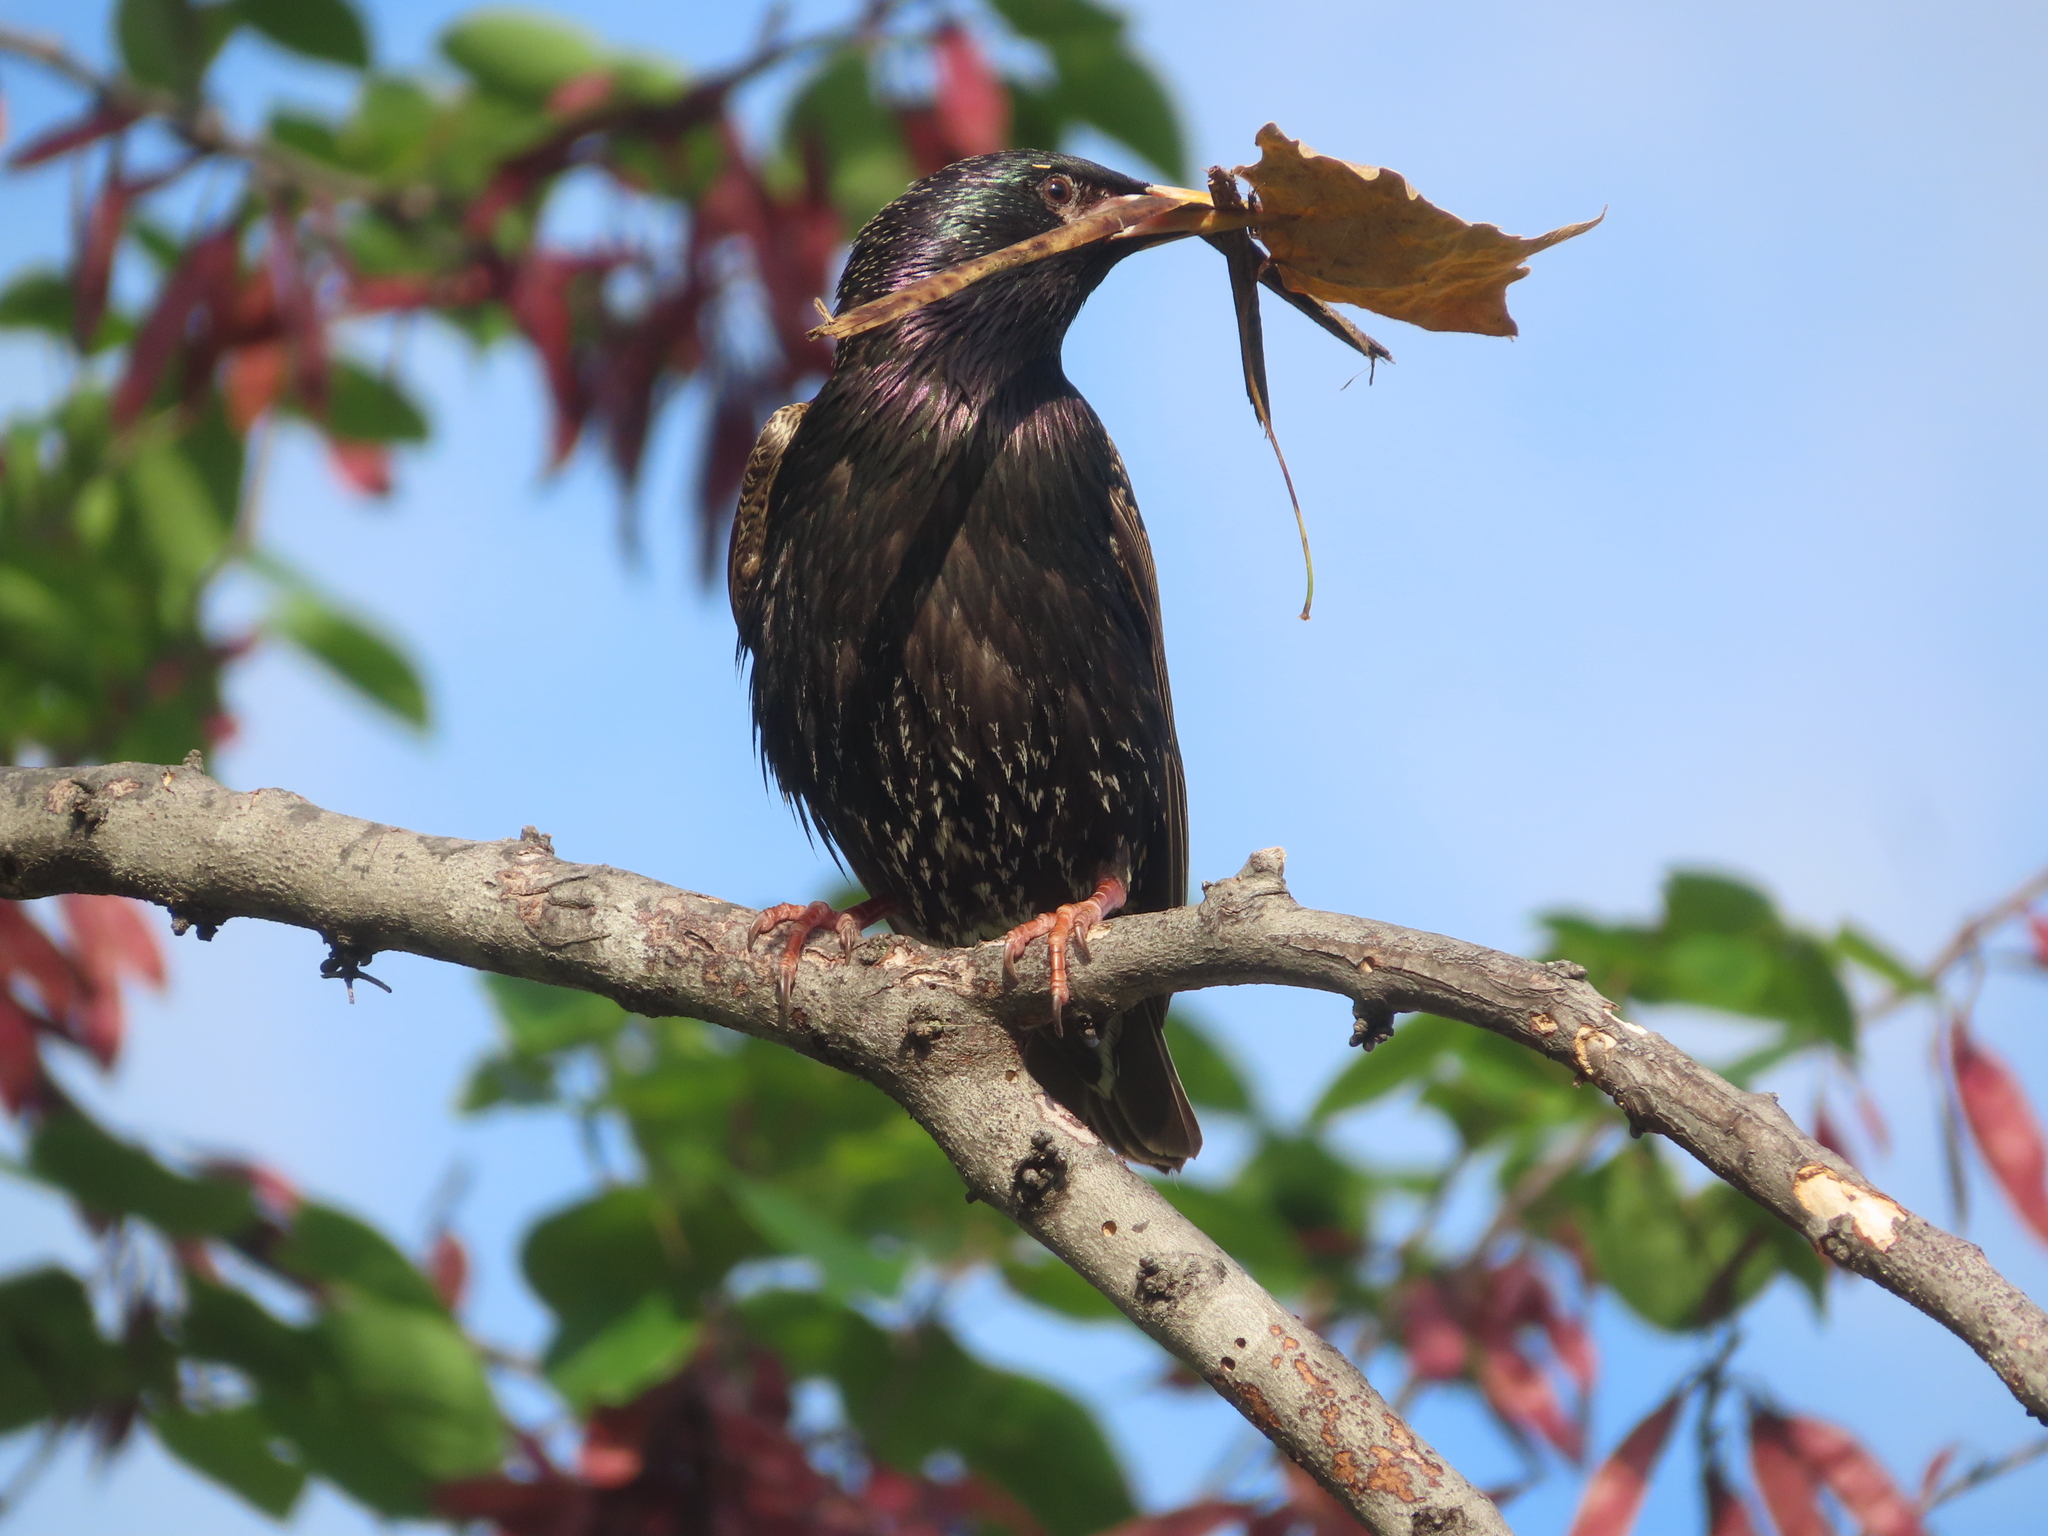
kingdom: Animalia
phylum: Chordata
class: Aves
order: Passeriformes
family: Sturnidae
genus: Sturnus
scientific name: Sturnus vulgaris
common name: Common starling
